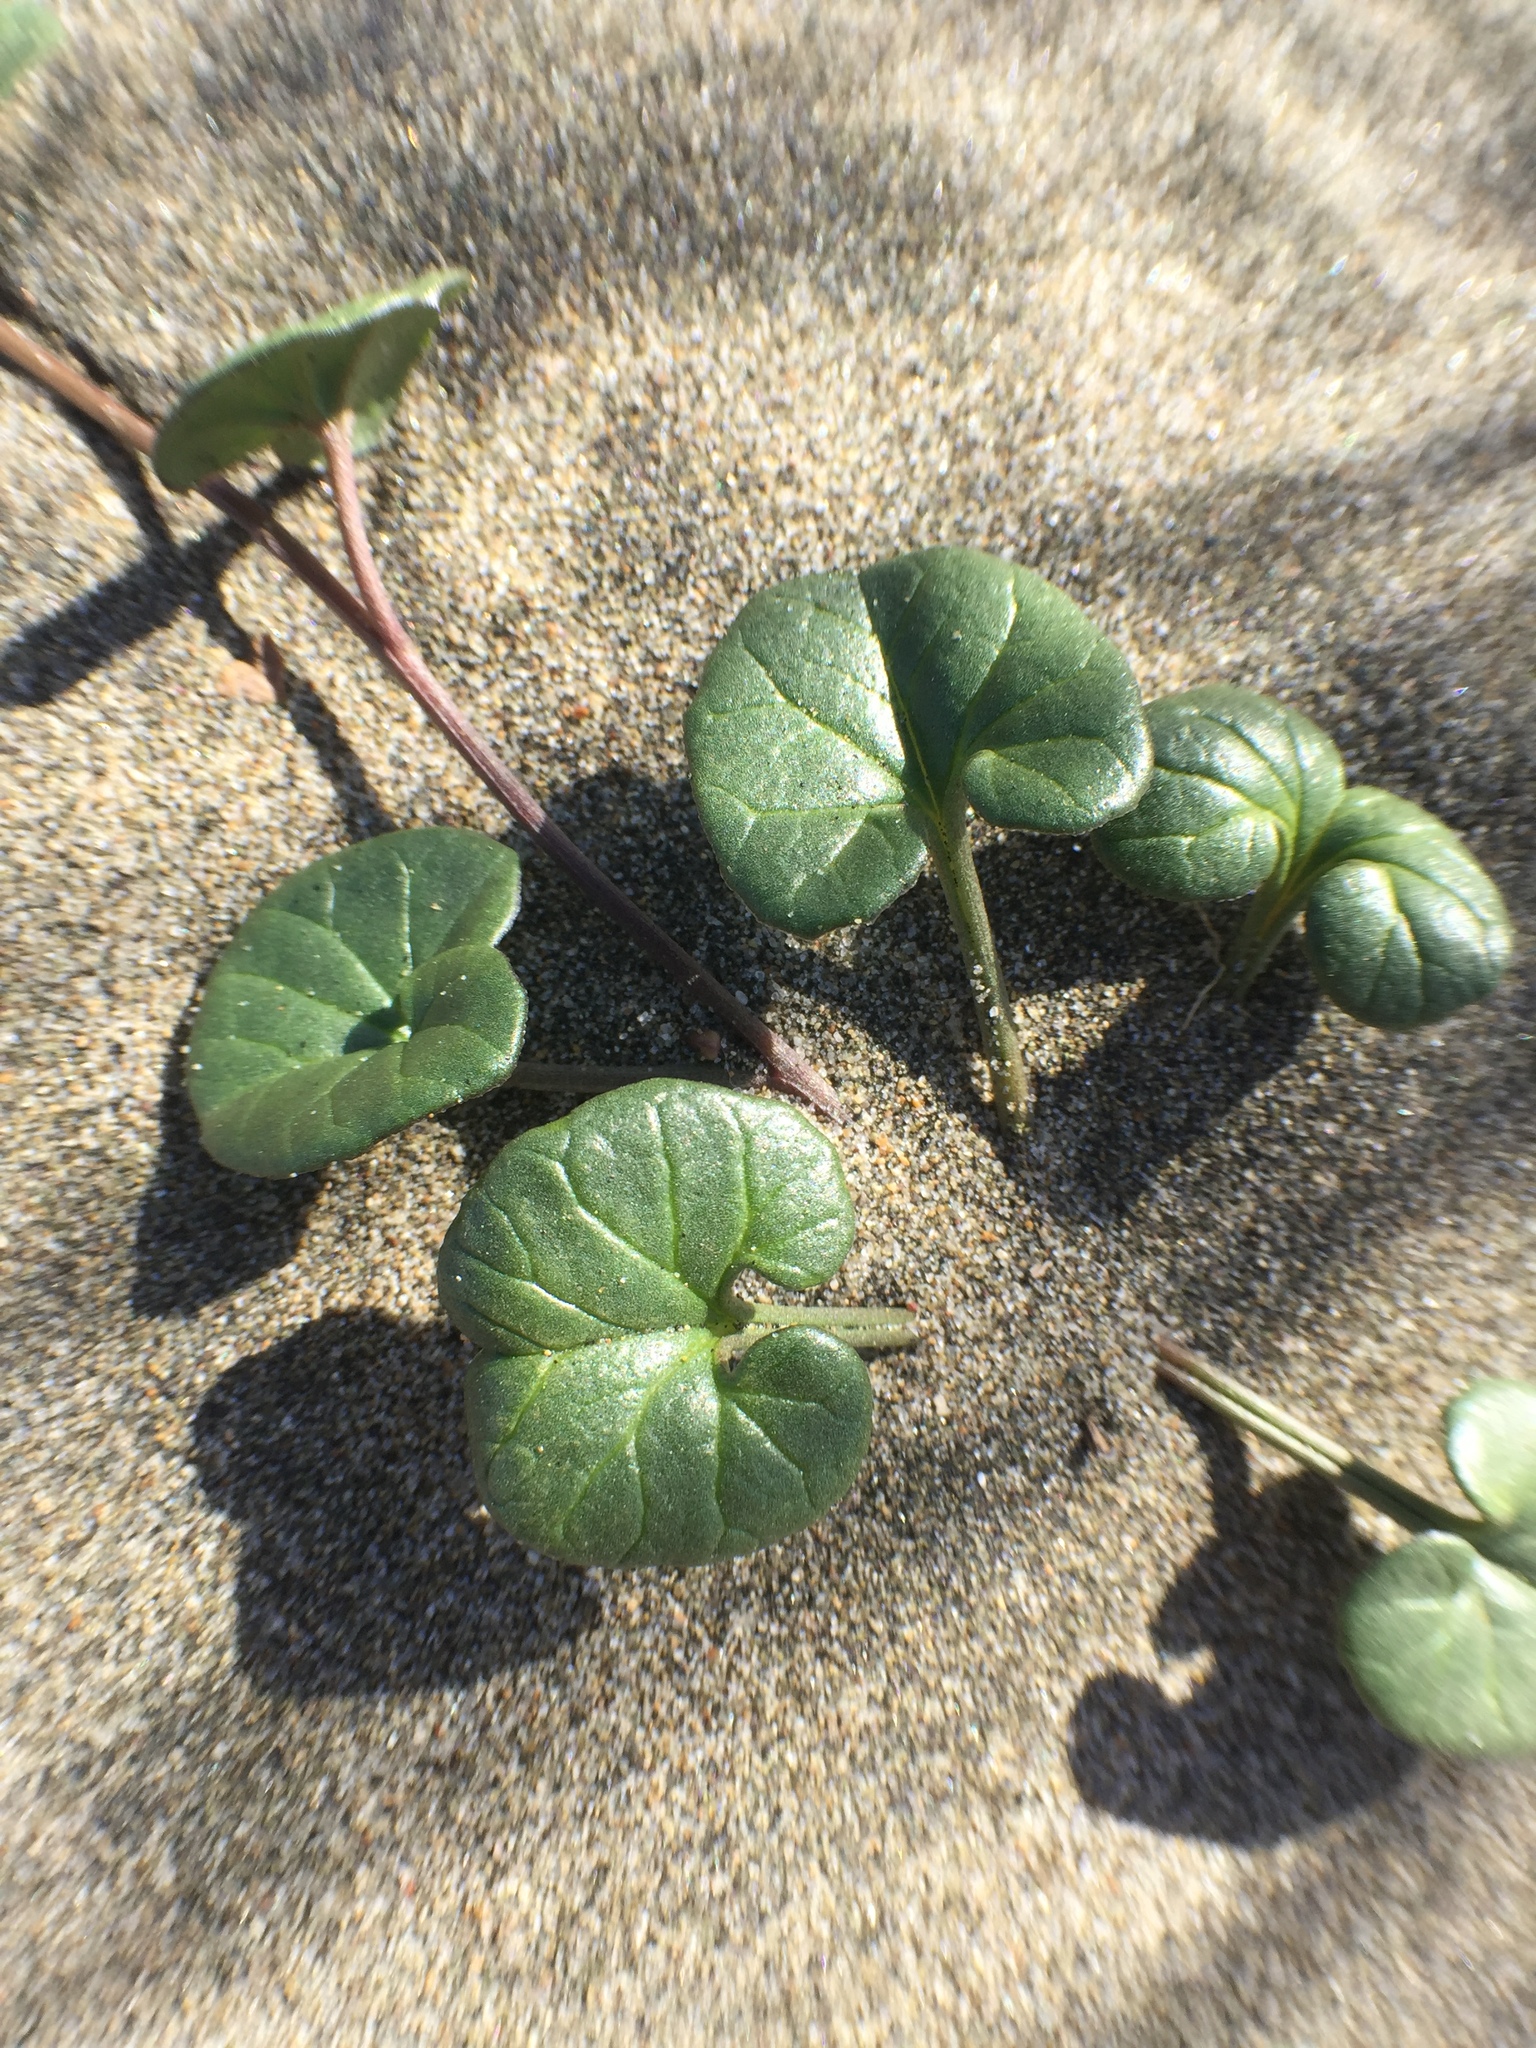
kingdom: Plantae
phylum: Tracheophyta
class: Magnoliopsida
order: Solanales
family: Convolvulaceae
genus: Calystegia
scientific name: Calystegia soldanella
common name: Sea bindweed
